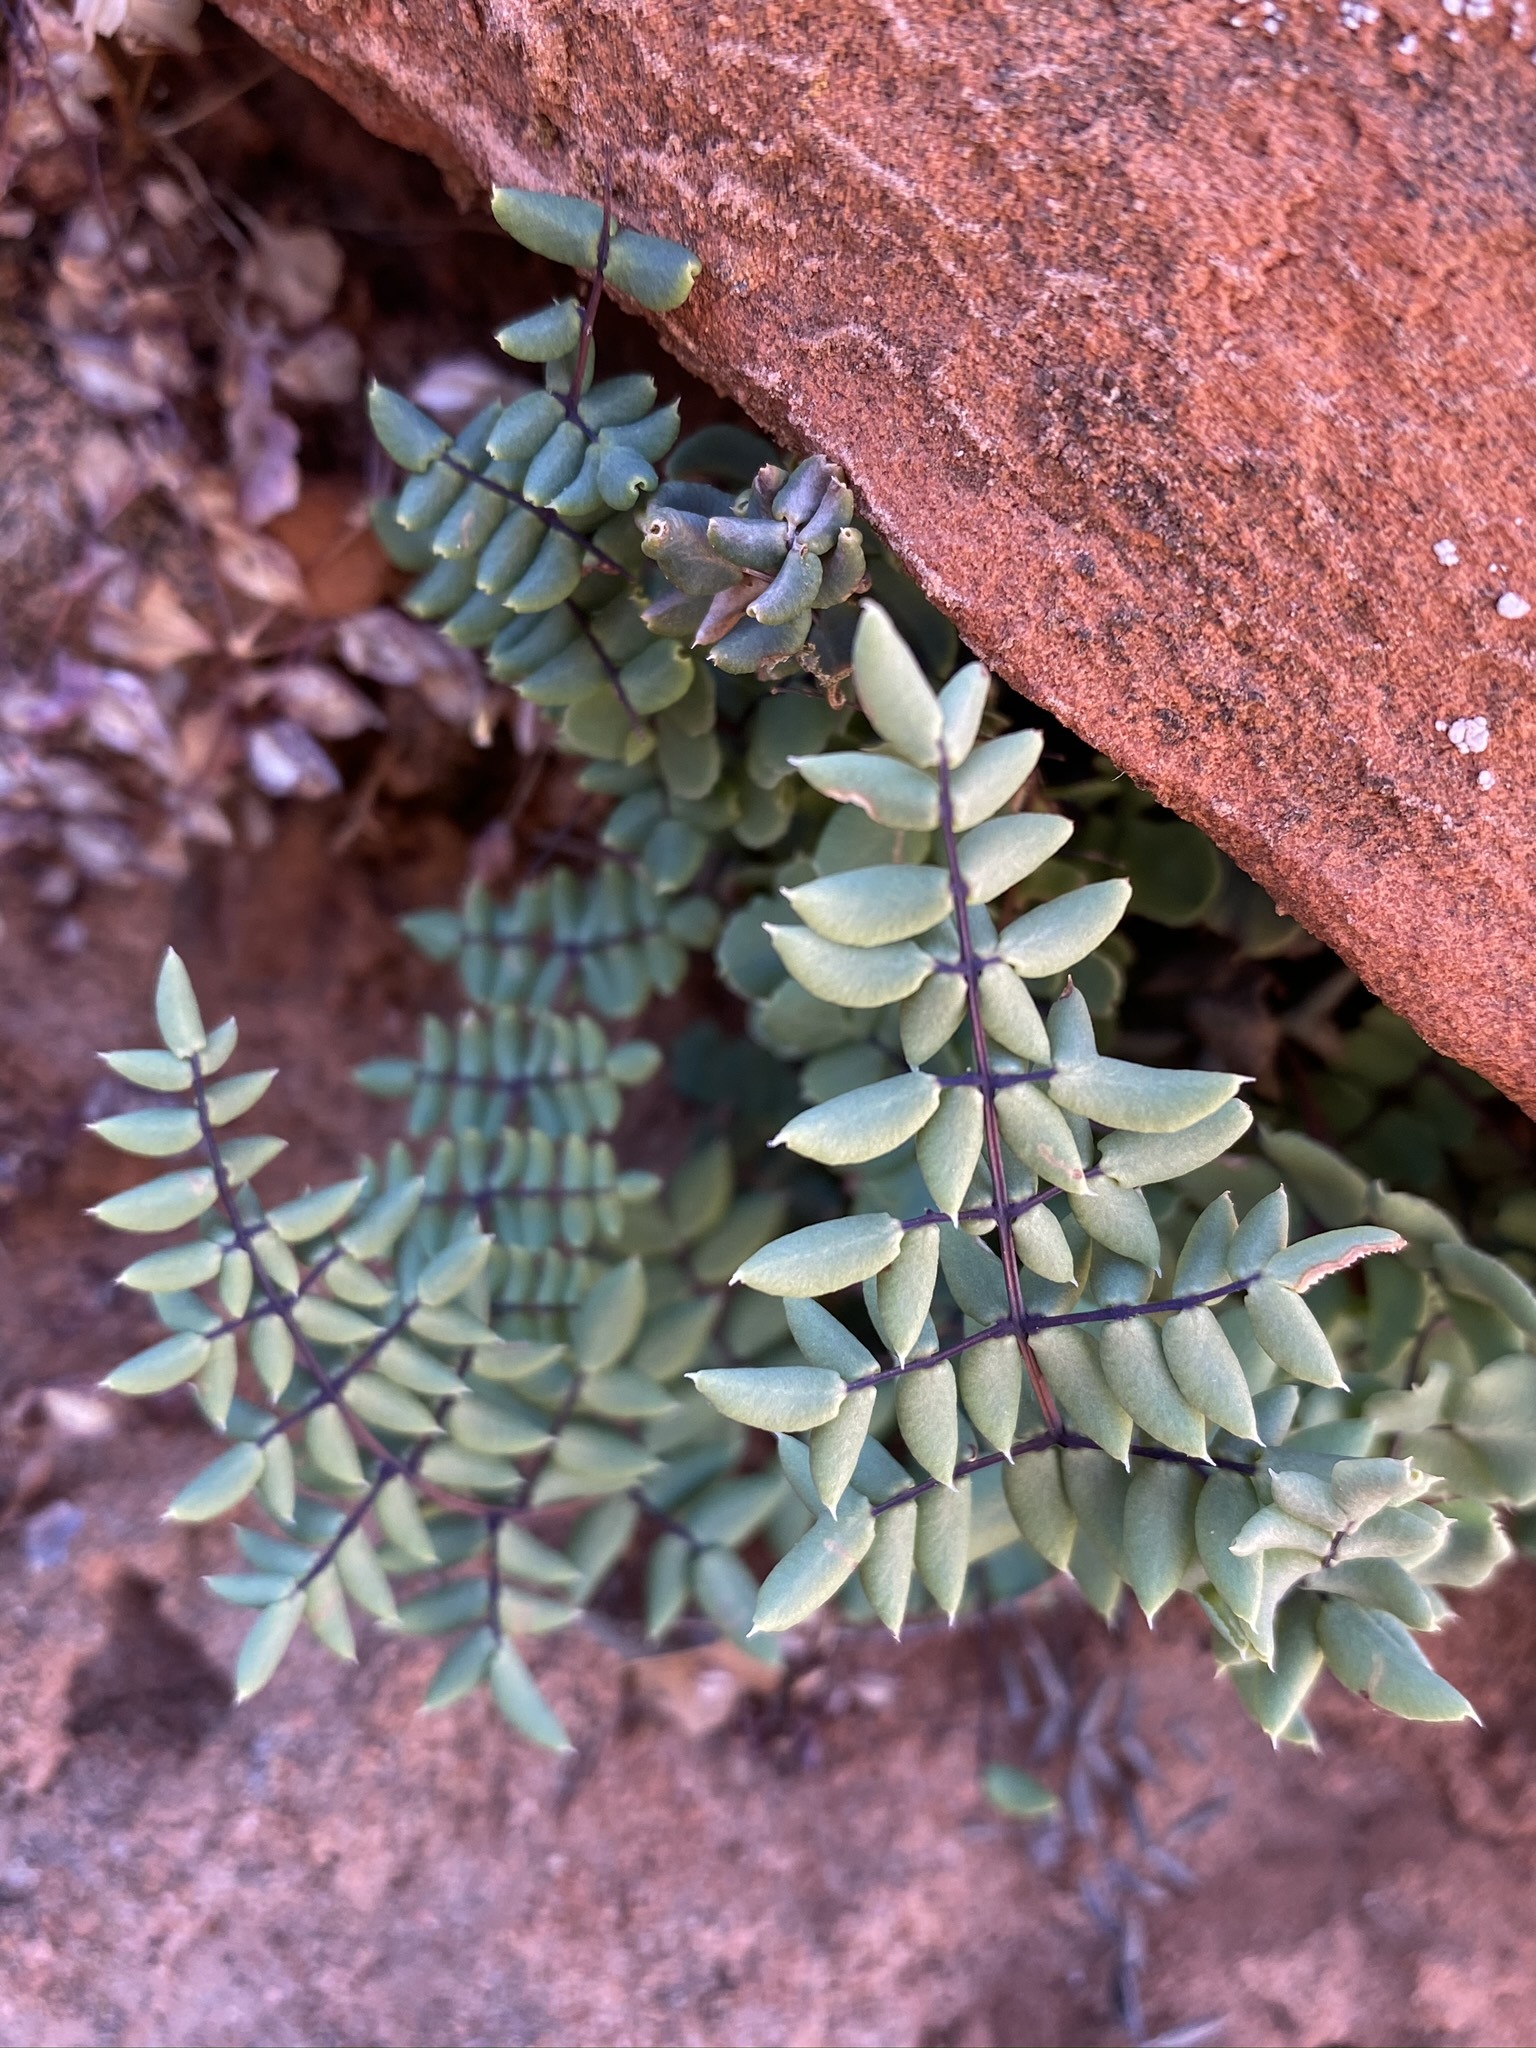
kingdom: Plantae
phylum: Tracheophyta
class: Polypodiopsida
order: Polypodiales
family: Pteridaceae
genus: Pellaea
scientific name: Pellaea truncata
